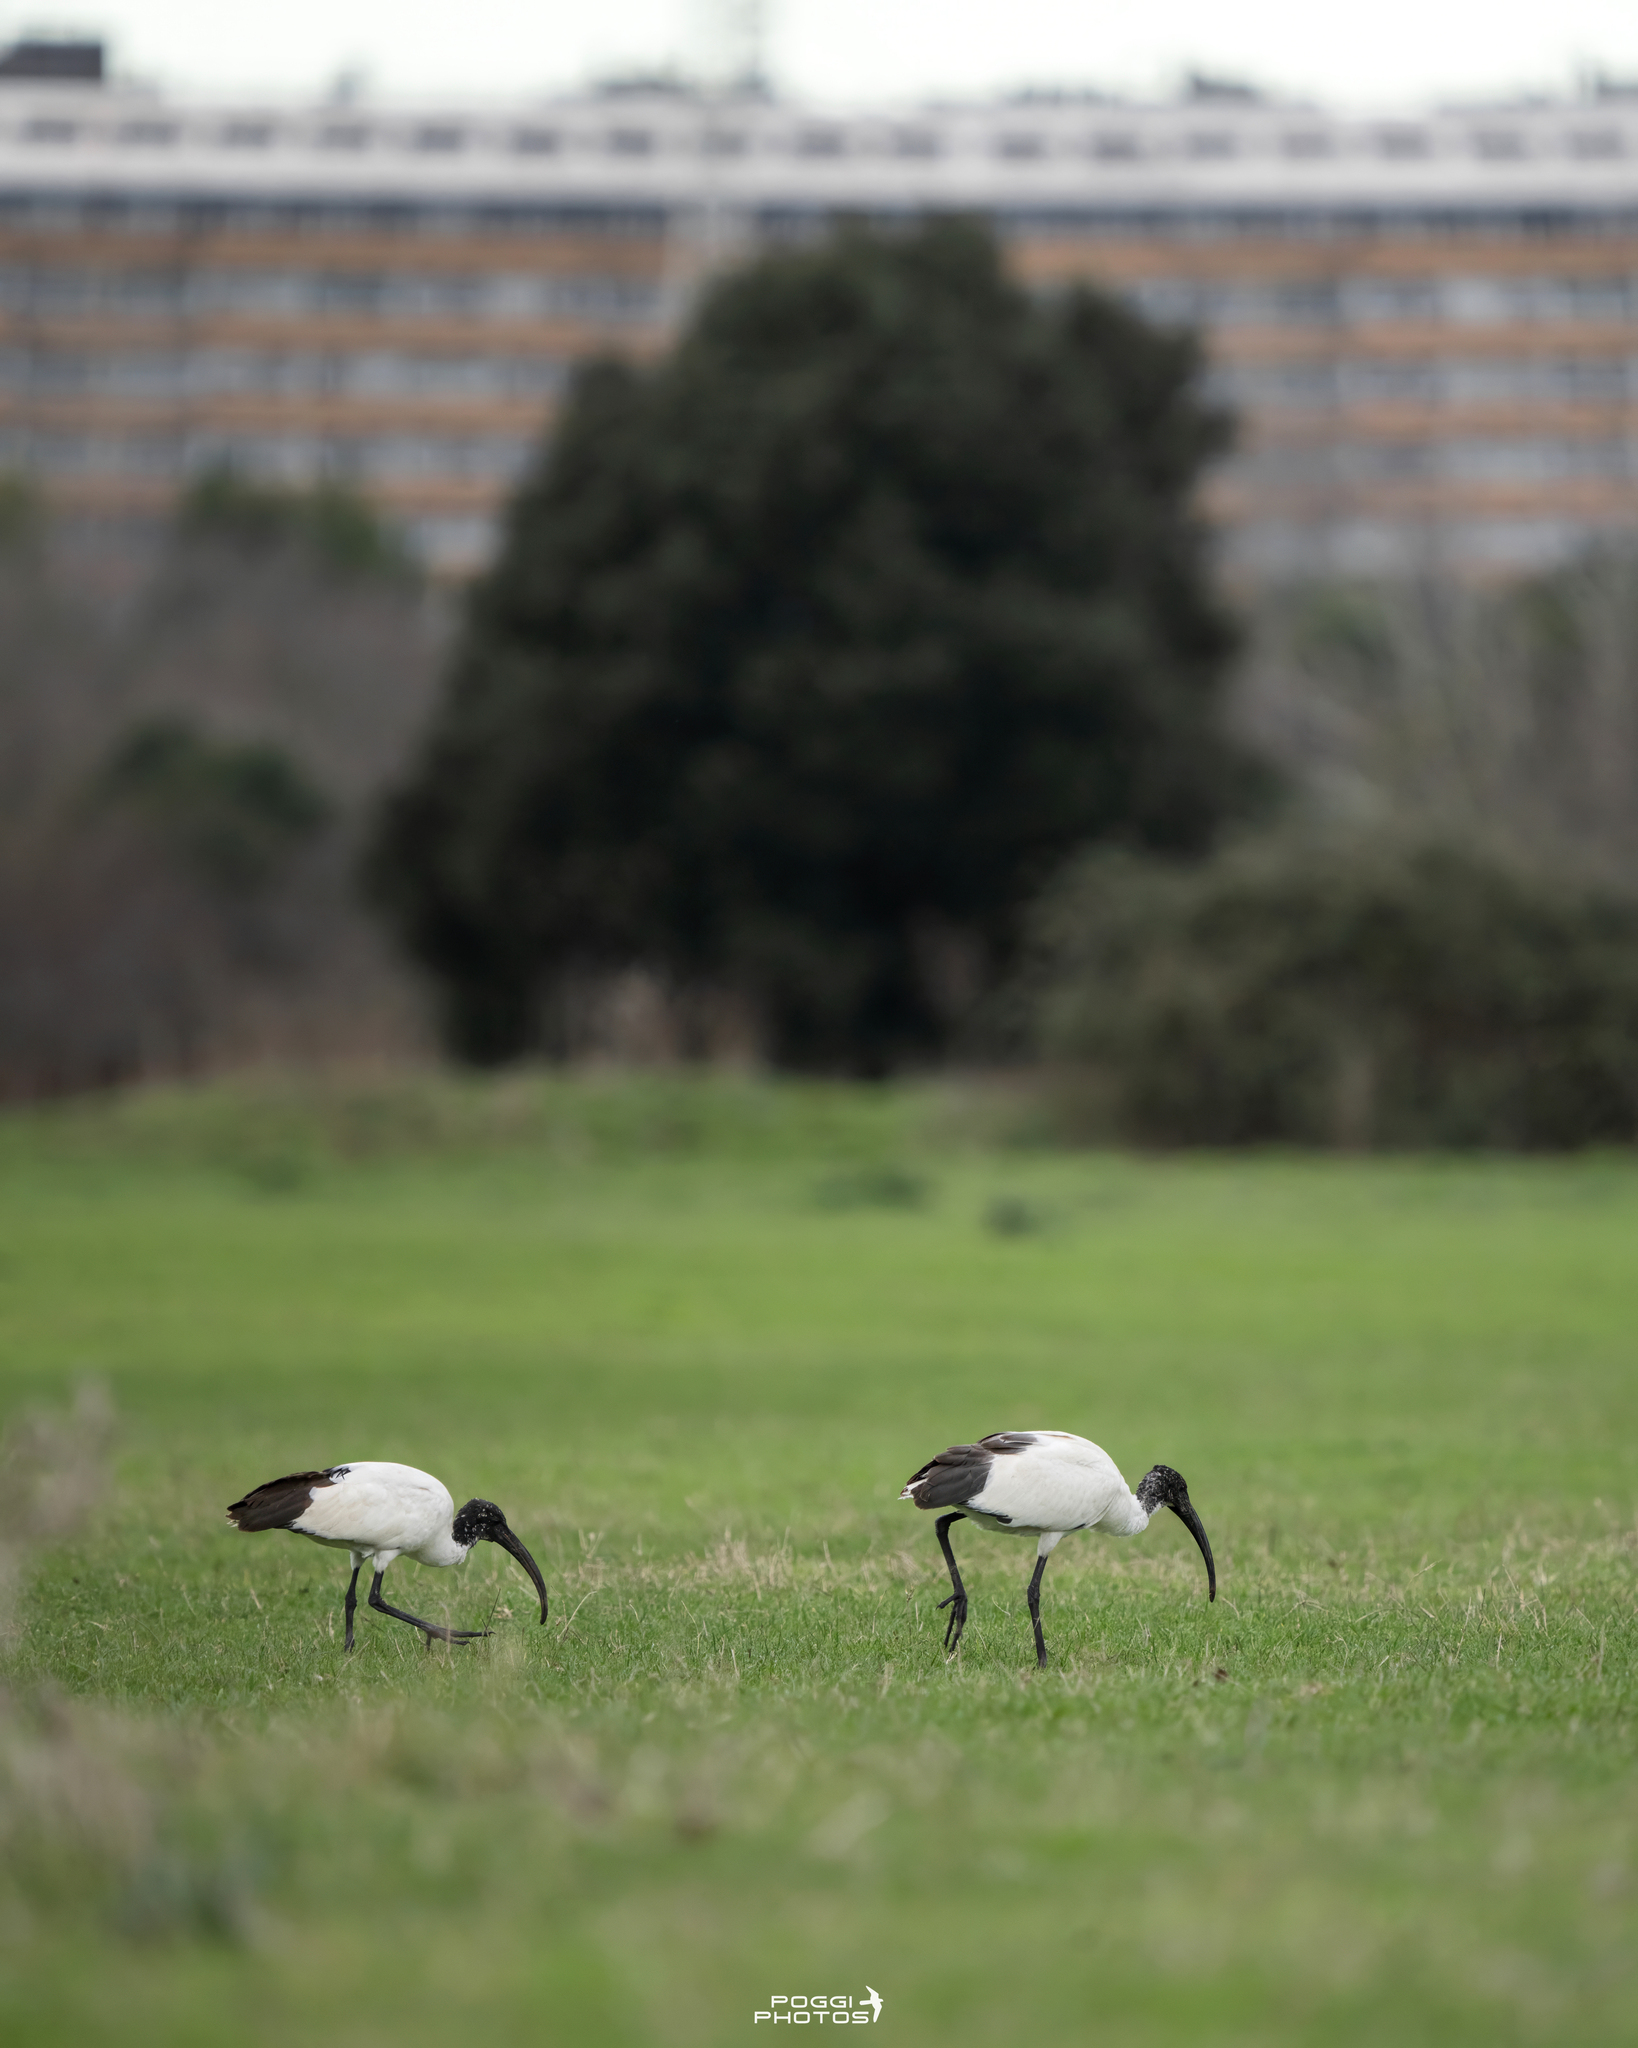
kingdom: Animalia
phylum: Chordata
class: Aves
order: Pelecaniformes
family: Threskiornithidae
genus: Threskiornis
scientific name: Threskiornis aethiopicus
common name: Sacred ibis
